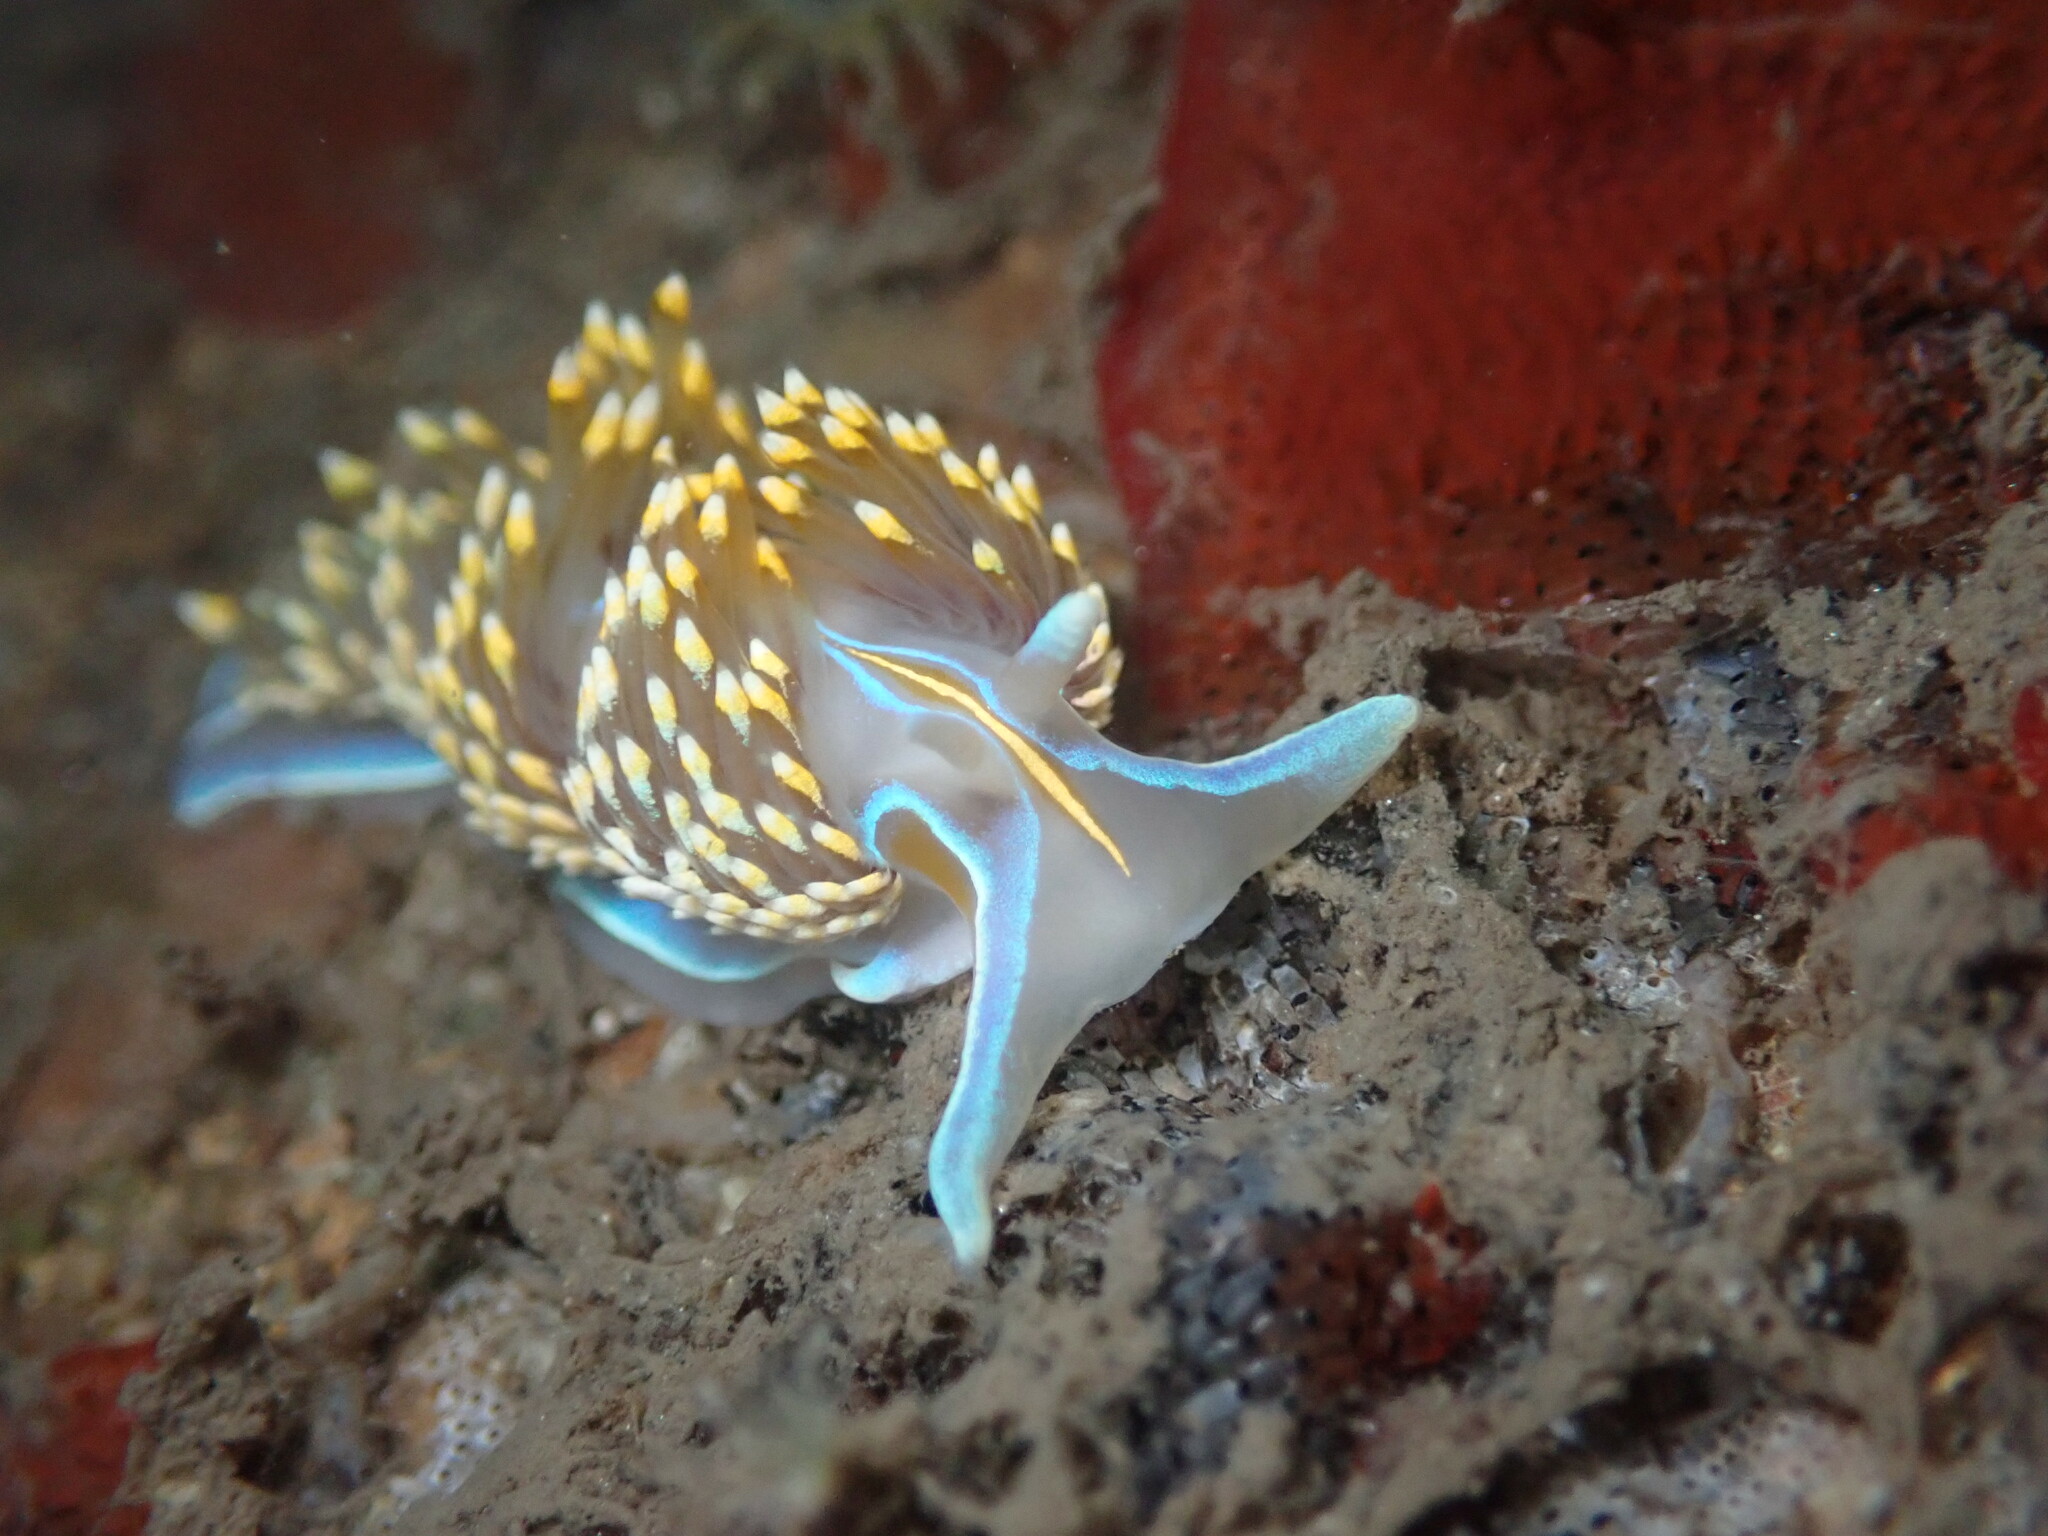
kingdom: Animalia
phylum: Mollusca
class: Gastropoda
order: Nudibranchia
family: Myrrhinidae
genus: Hermissenda
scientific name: Hermissenda opalescens
